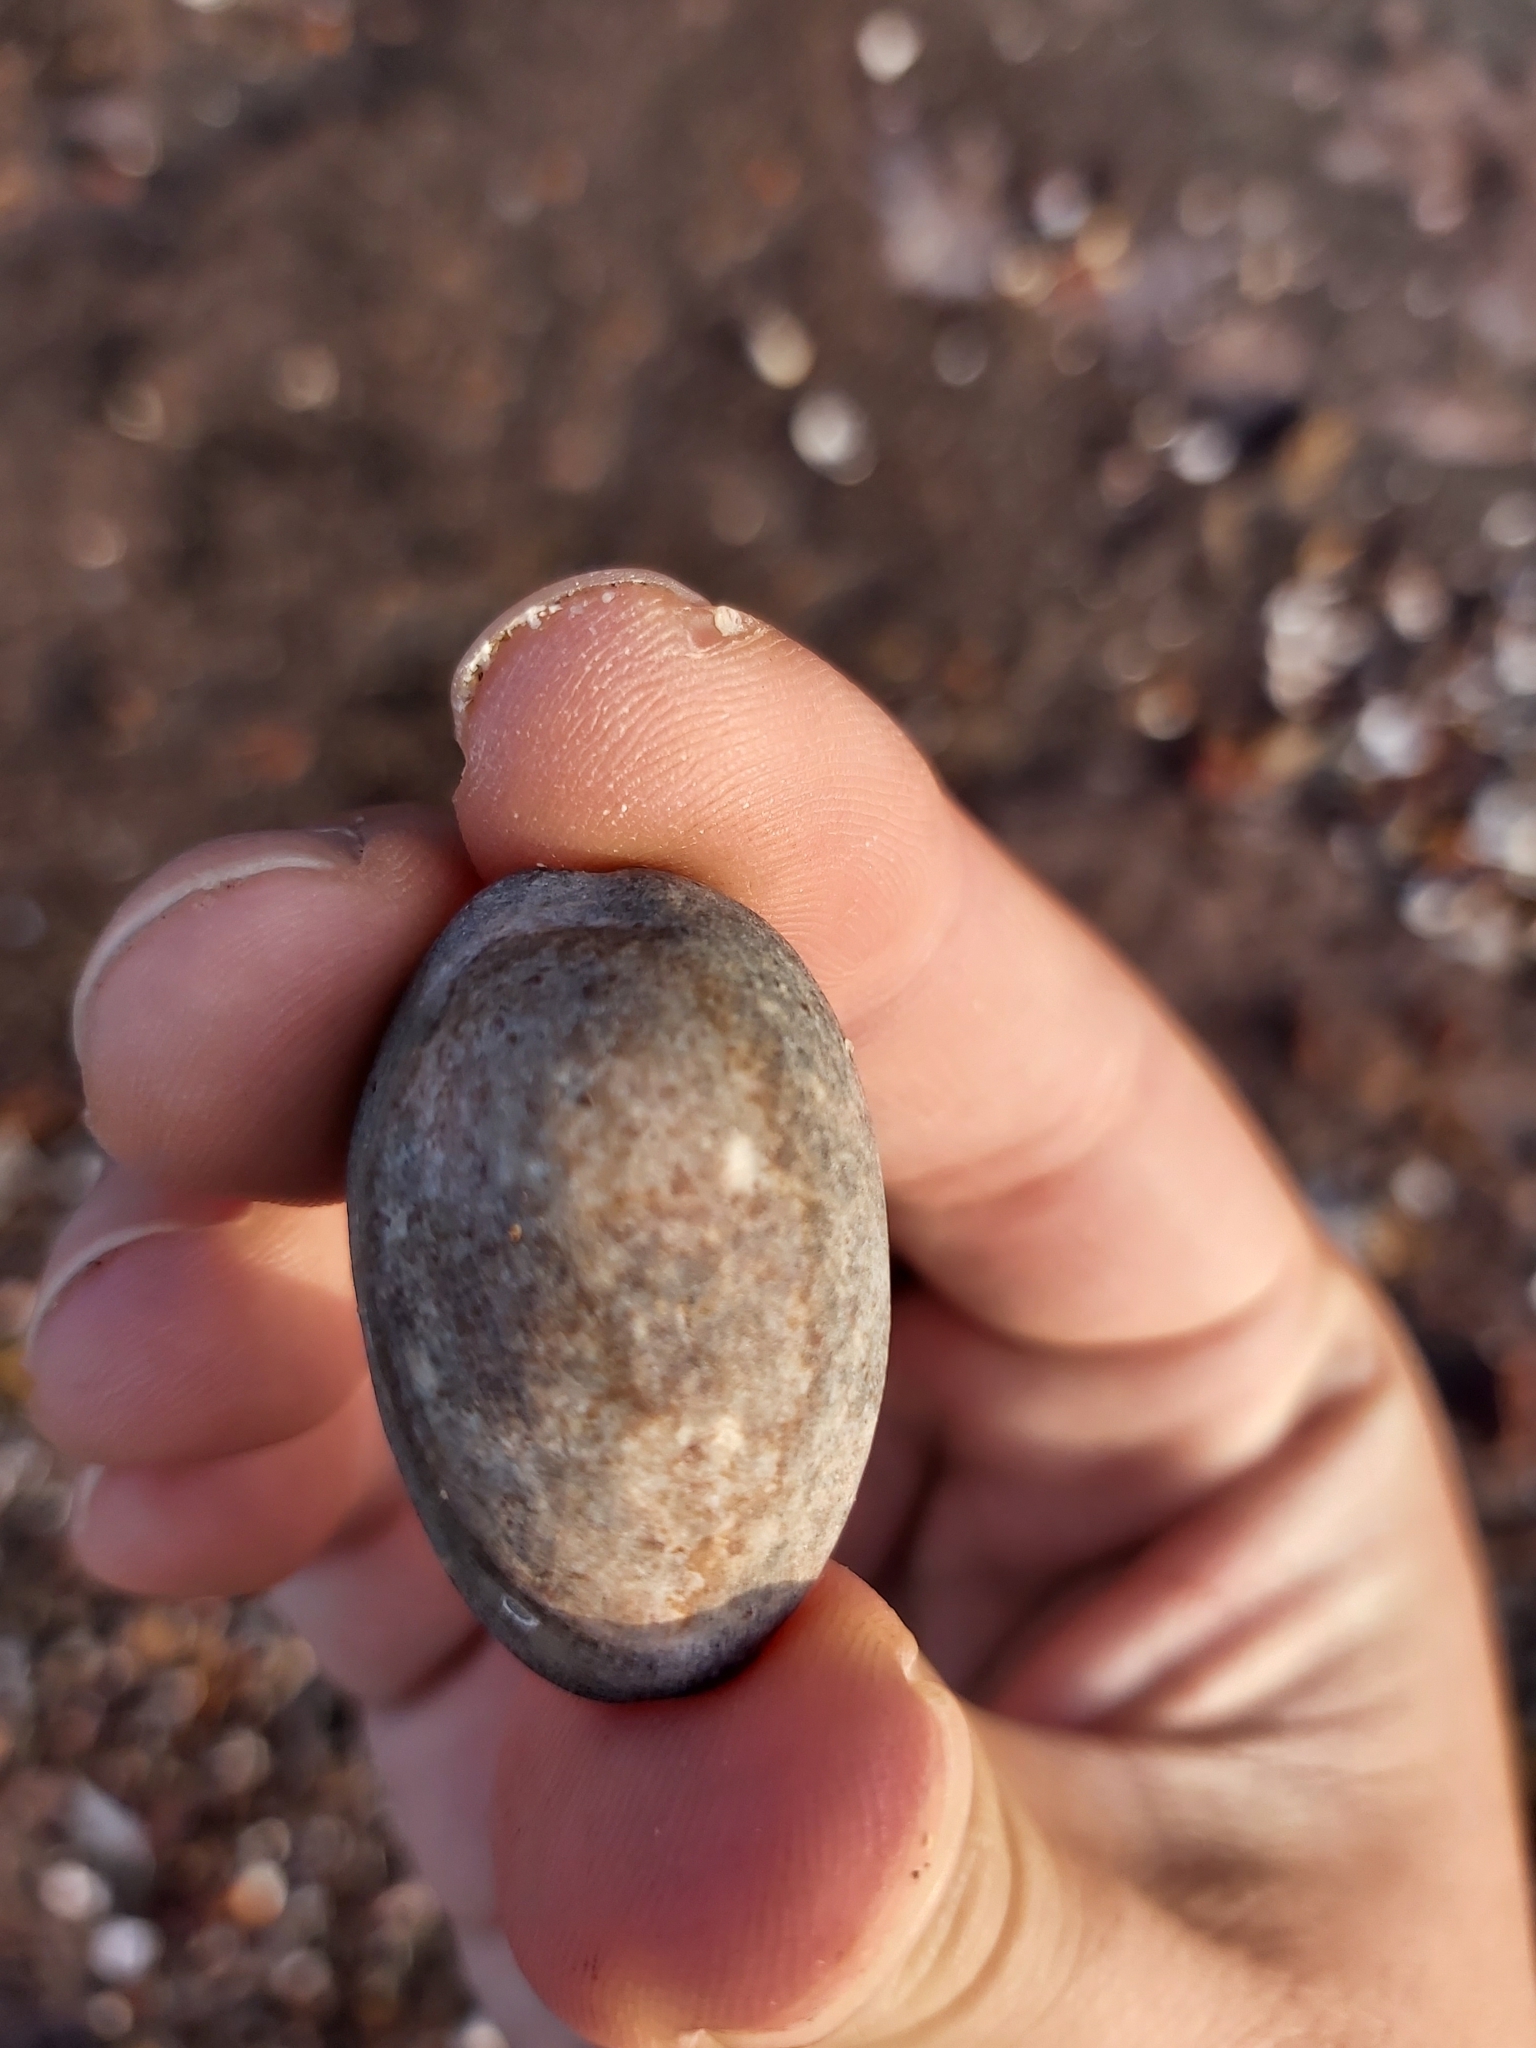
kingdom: Animalia
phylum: Mollusca
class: Gastropoda
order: Littorinimorpha
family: Cypraeidae
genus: Monetaria
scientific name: Monetaria caputserpentis
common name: Serpent's head cowrie
